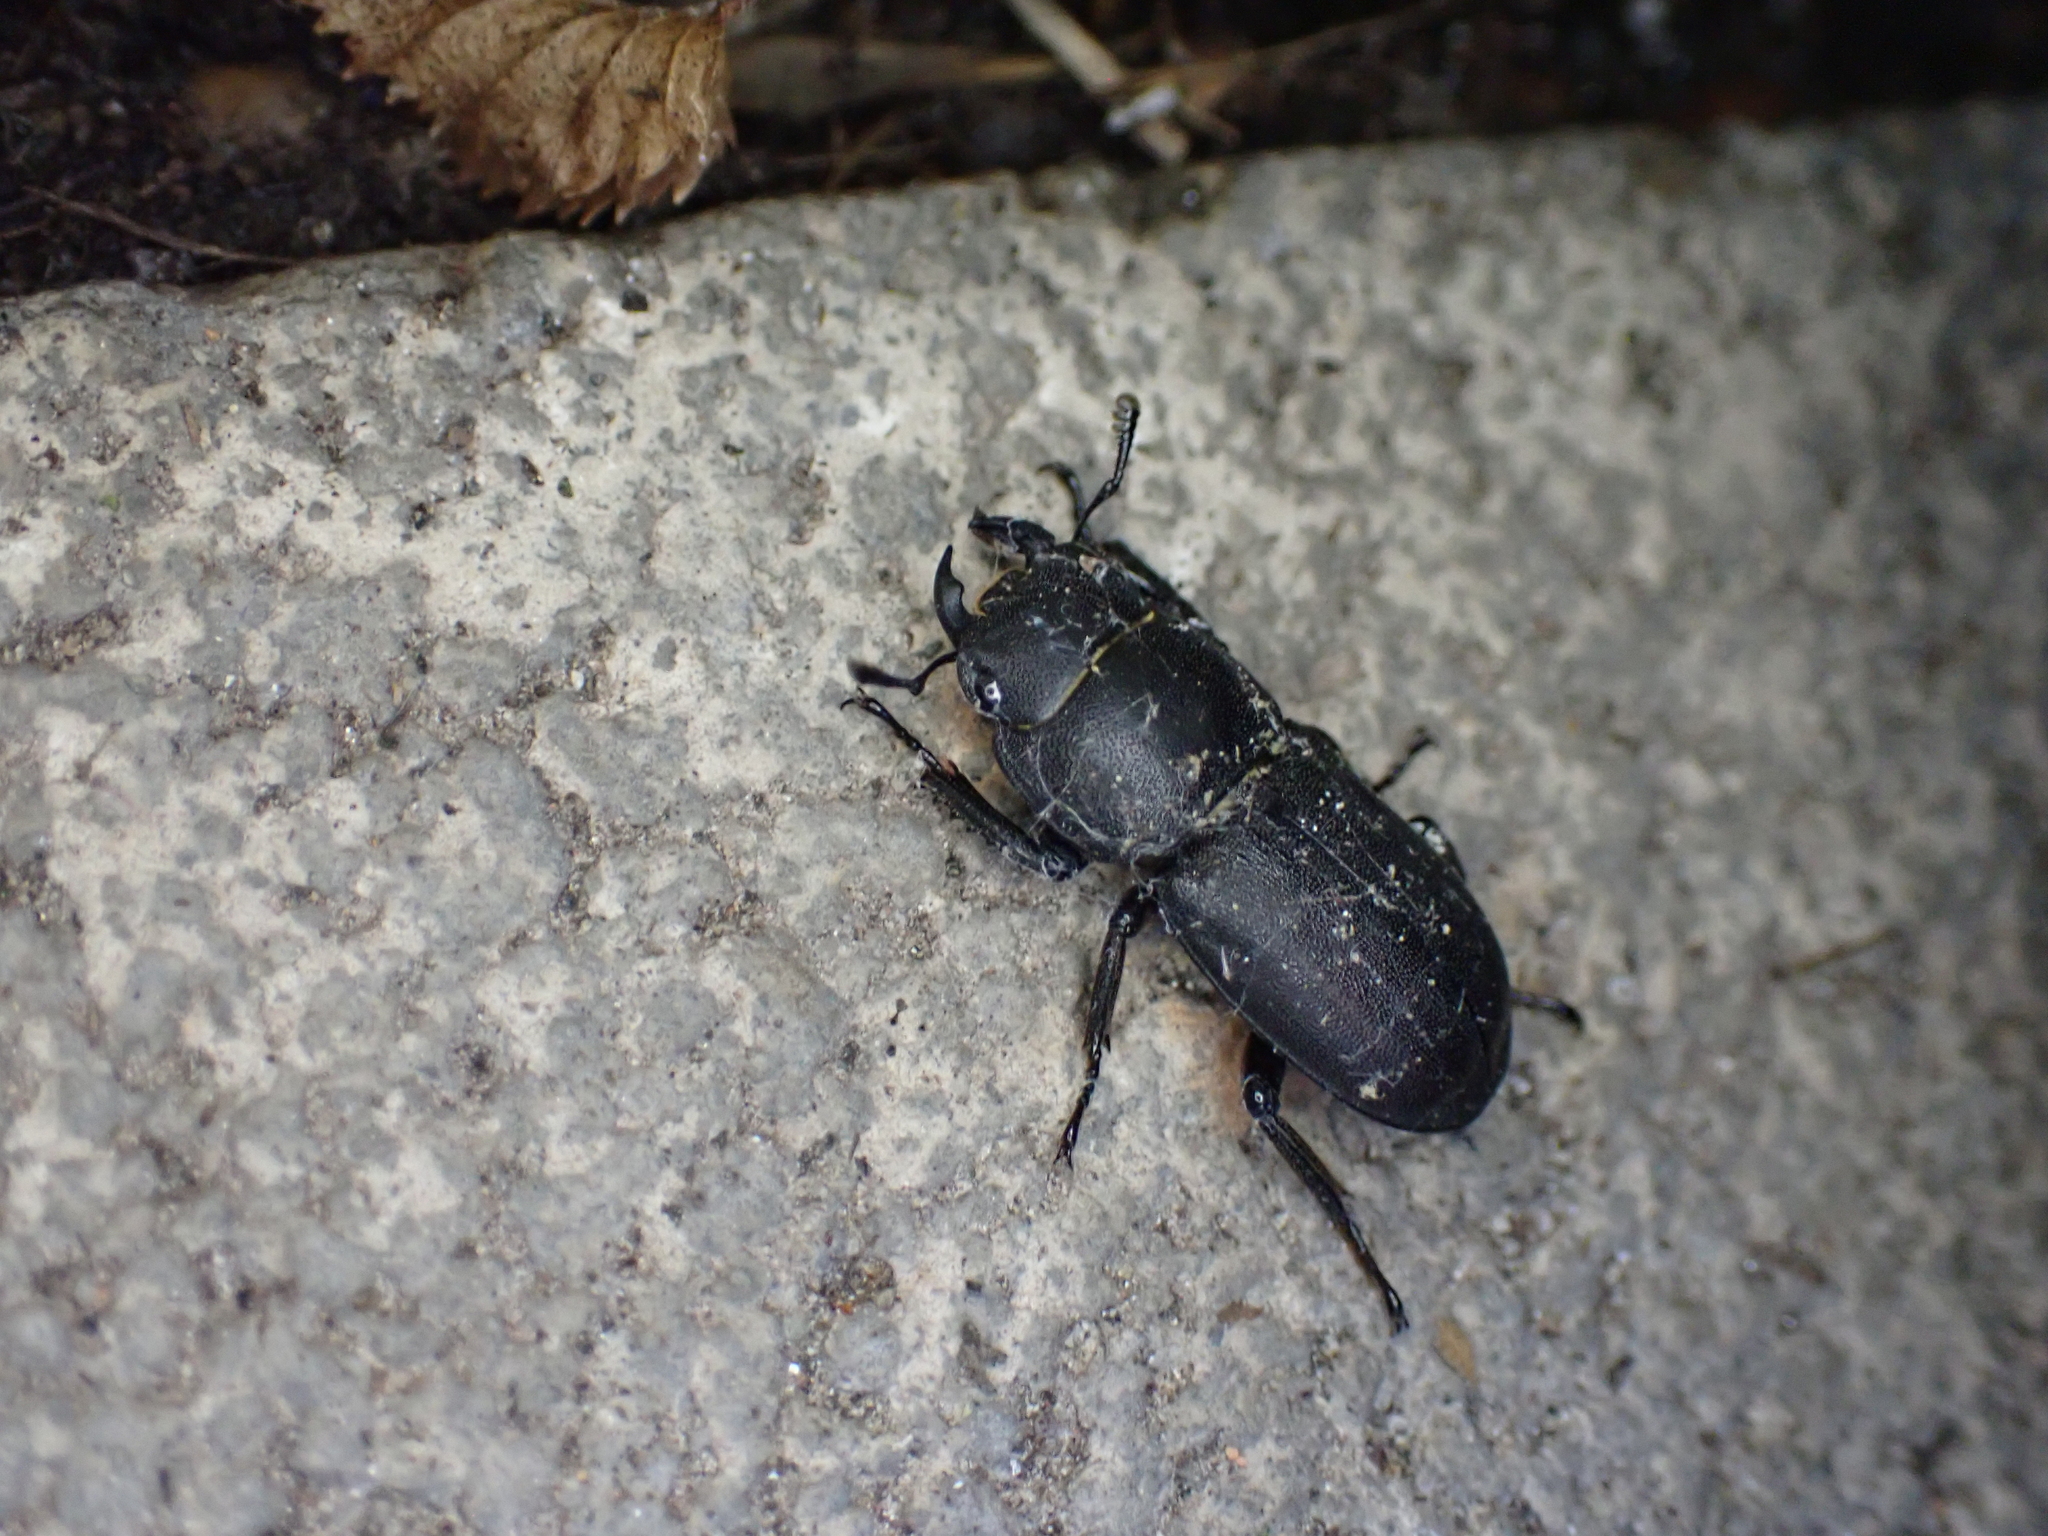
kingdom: Animalia
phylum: Arthropoda
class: Insecta
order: Coleoptera
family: Lucanidae
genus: Dorcus
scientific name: Dorcus parallelipipedus
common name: Lesser stag beetle
